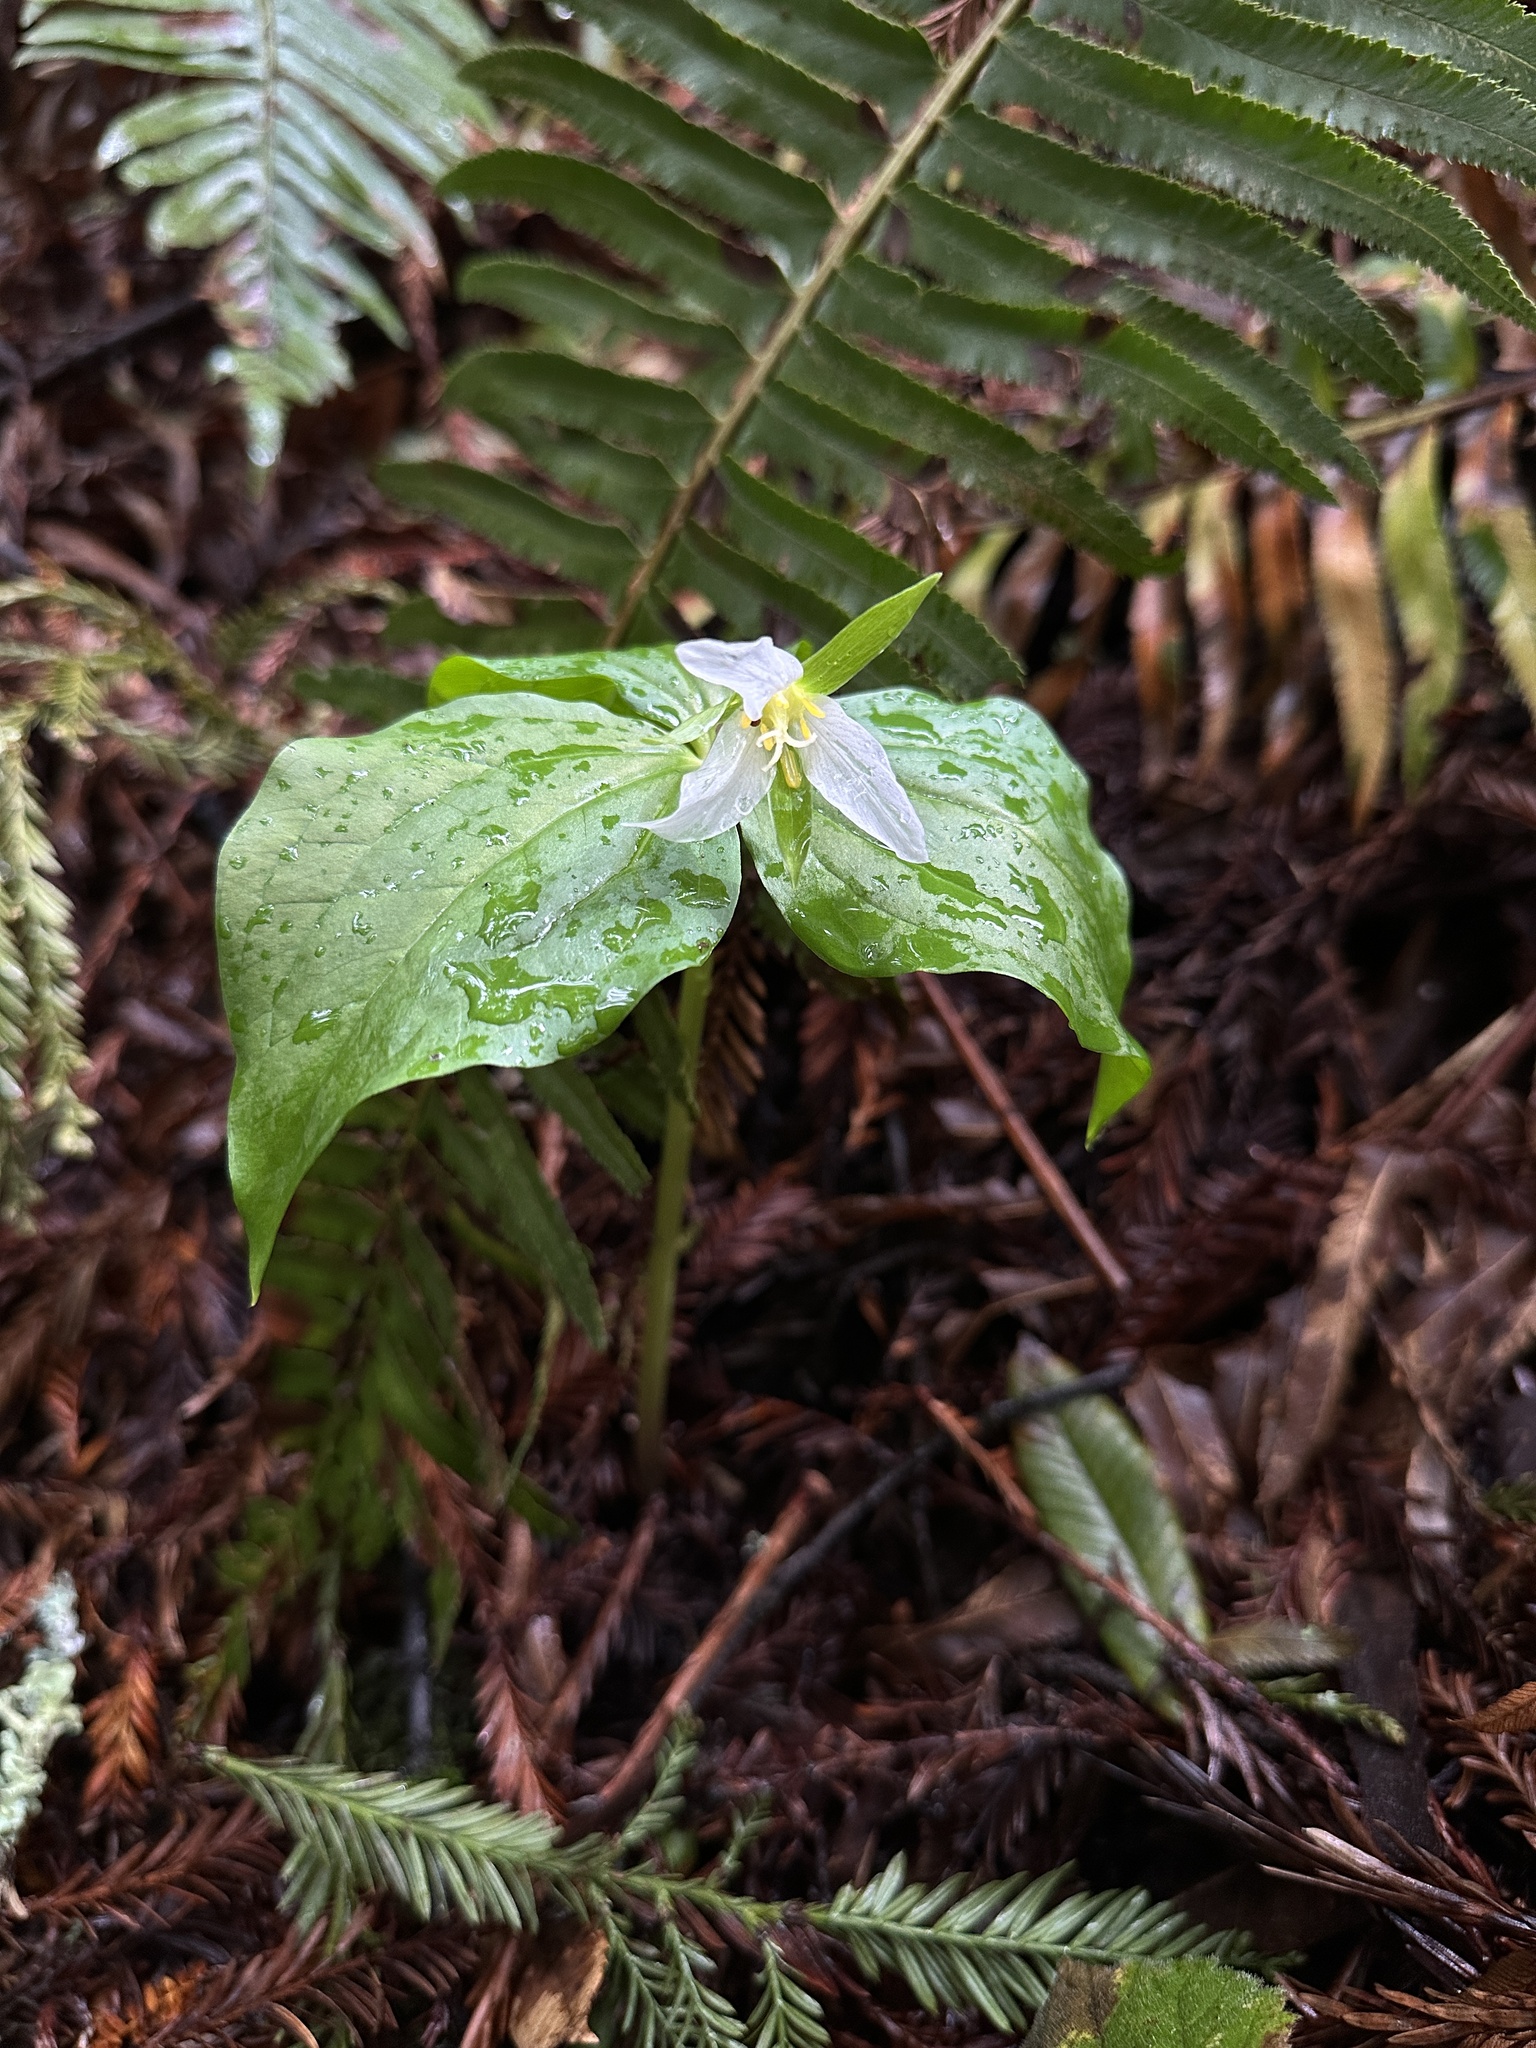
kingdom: Plantae
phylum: Tracheophyta
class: Liliopsida
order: Liliales
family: Melanthiaceae
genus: Trillium
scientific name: Trillium ovatum
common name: Pacific trillium
